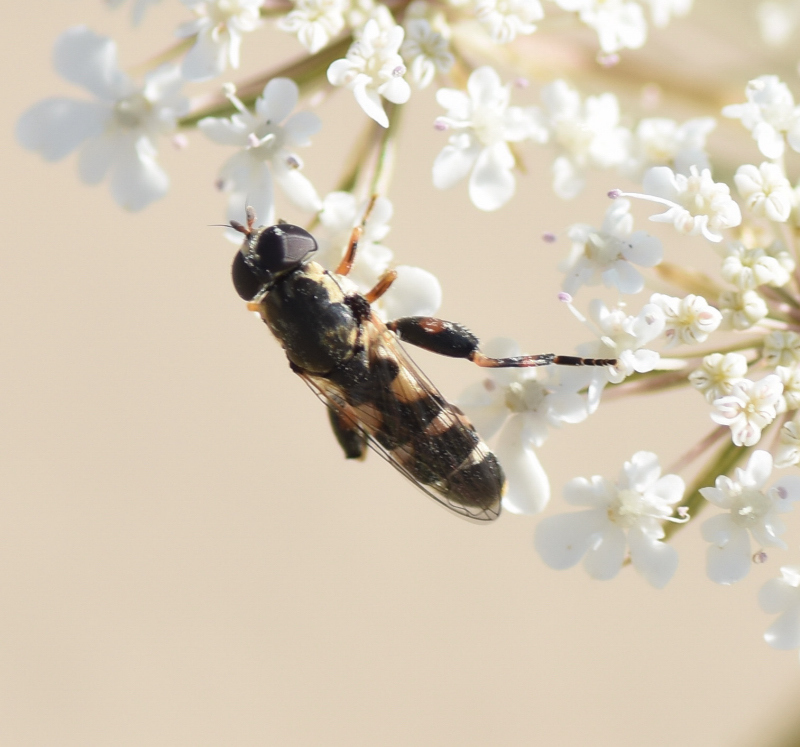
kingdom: Animalia
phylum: Arthropoda
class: Insecta
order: Diptera
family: Syrphidae
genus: Syritta
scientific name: Syritta pipiens
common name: Hover fly
